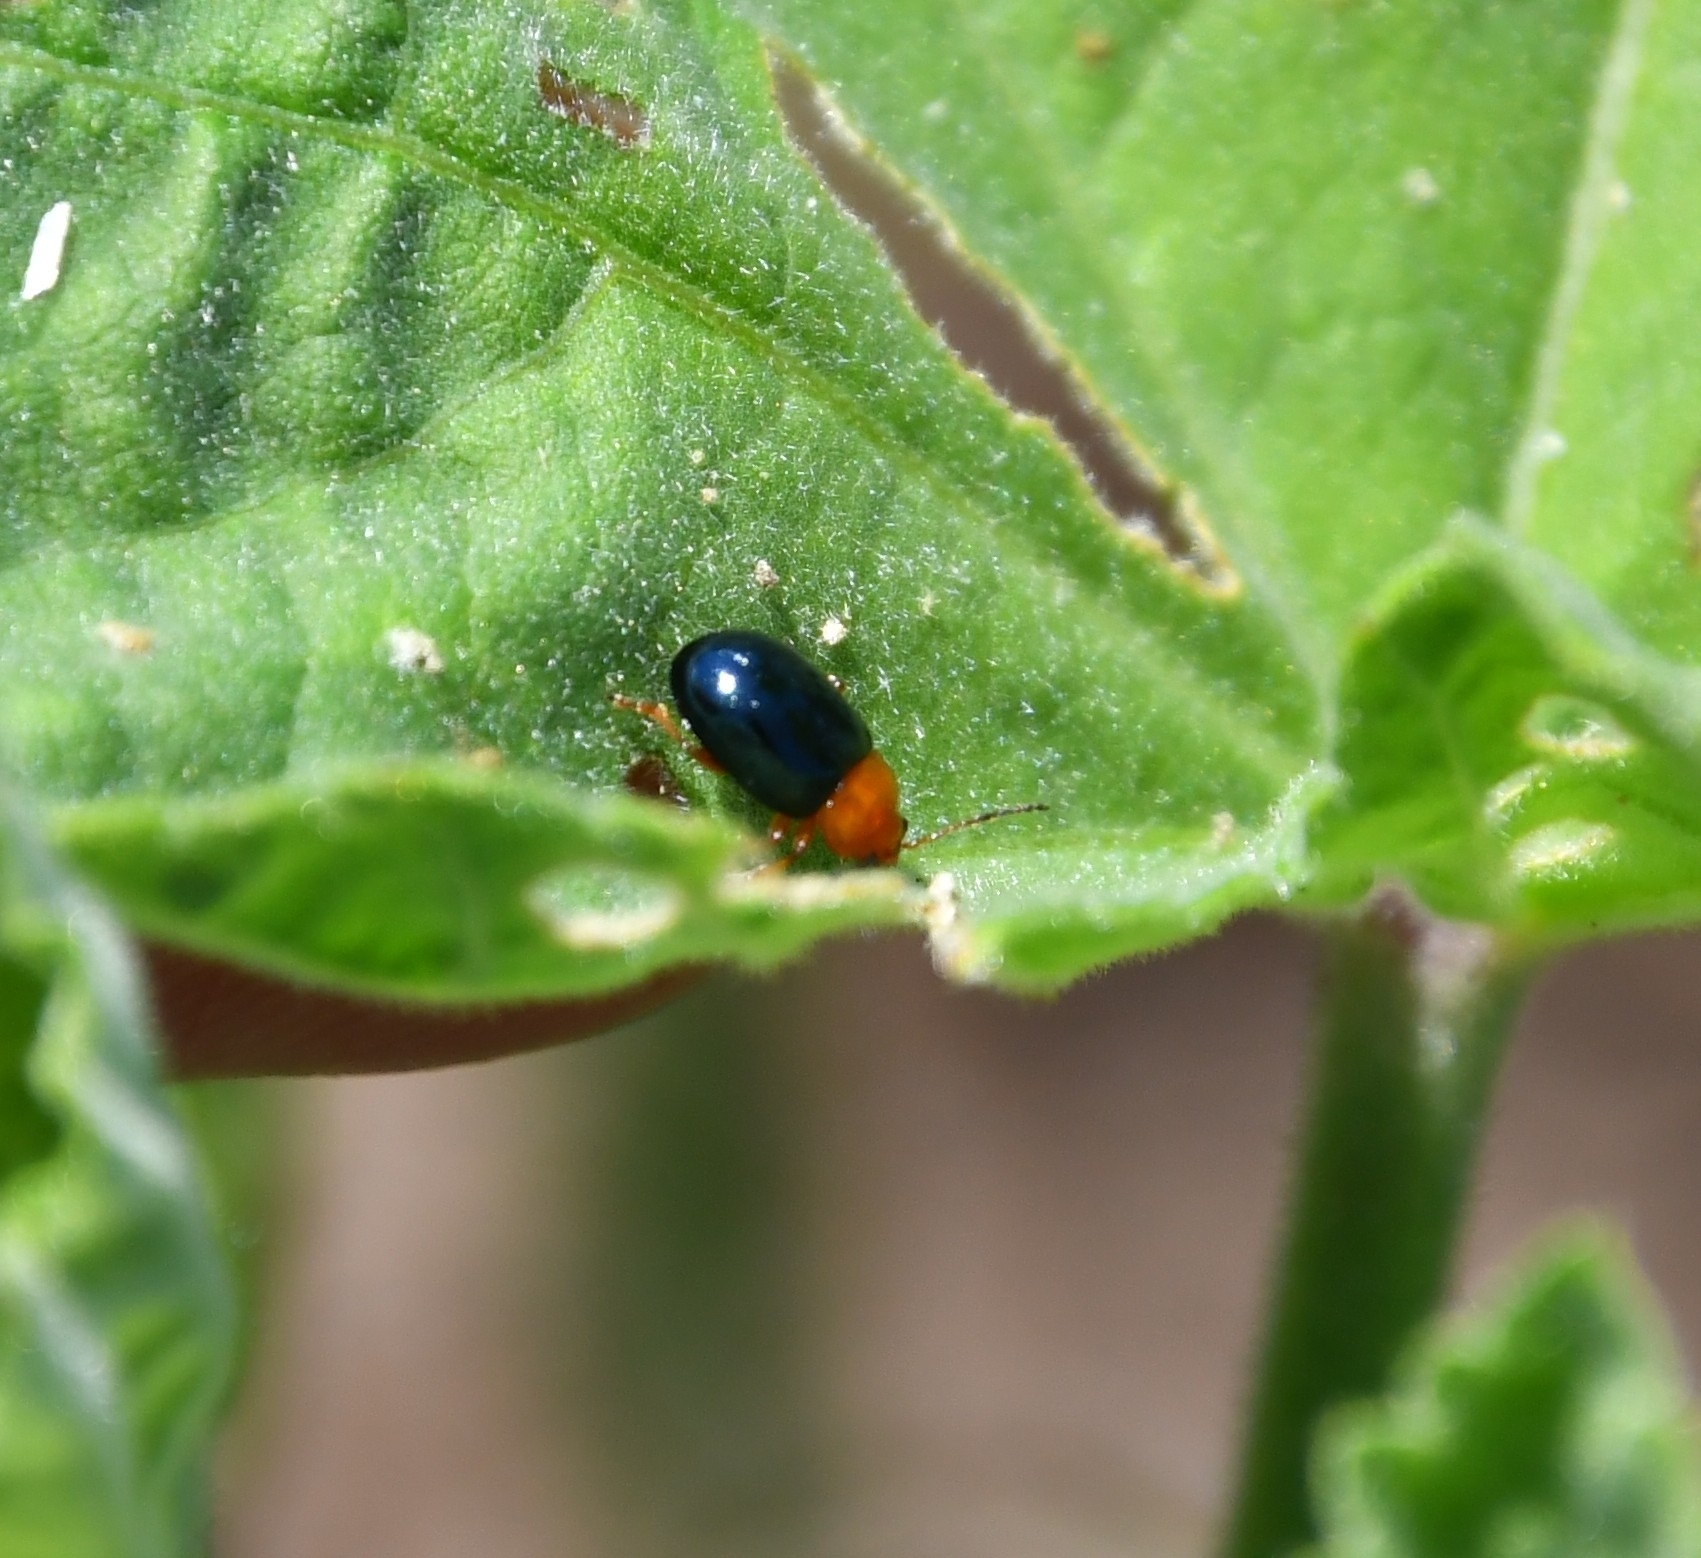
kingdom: Animalia
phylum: Arthropoda
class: Insecta
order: Coleoptera
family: Chrysomelidae
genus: Podagrica
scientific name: Podagrica fuscicornis
